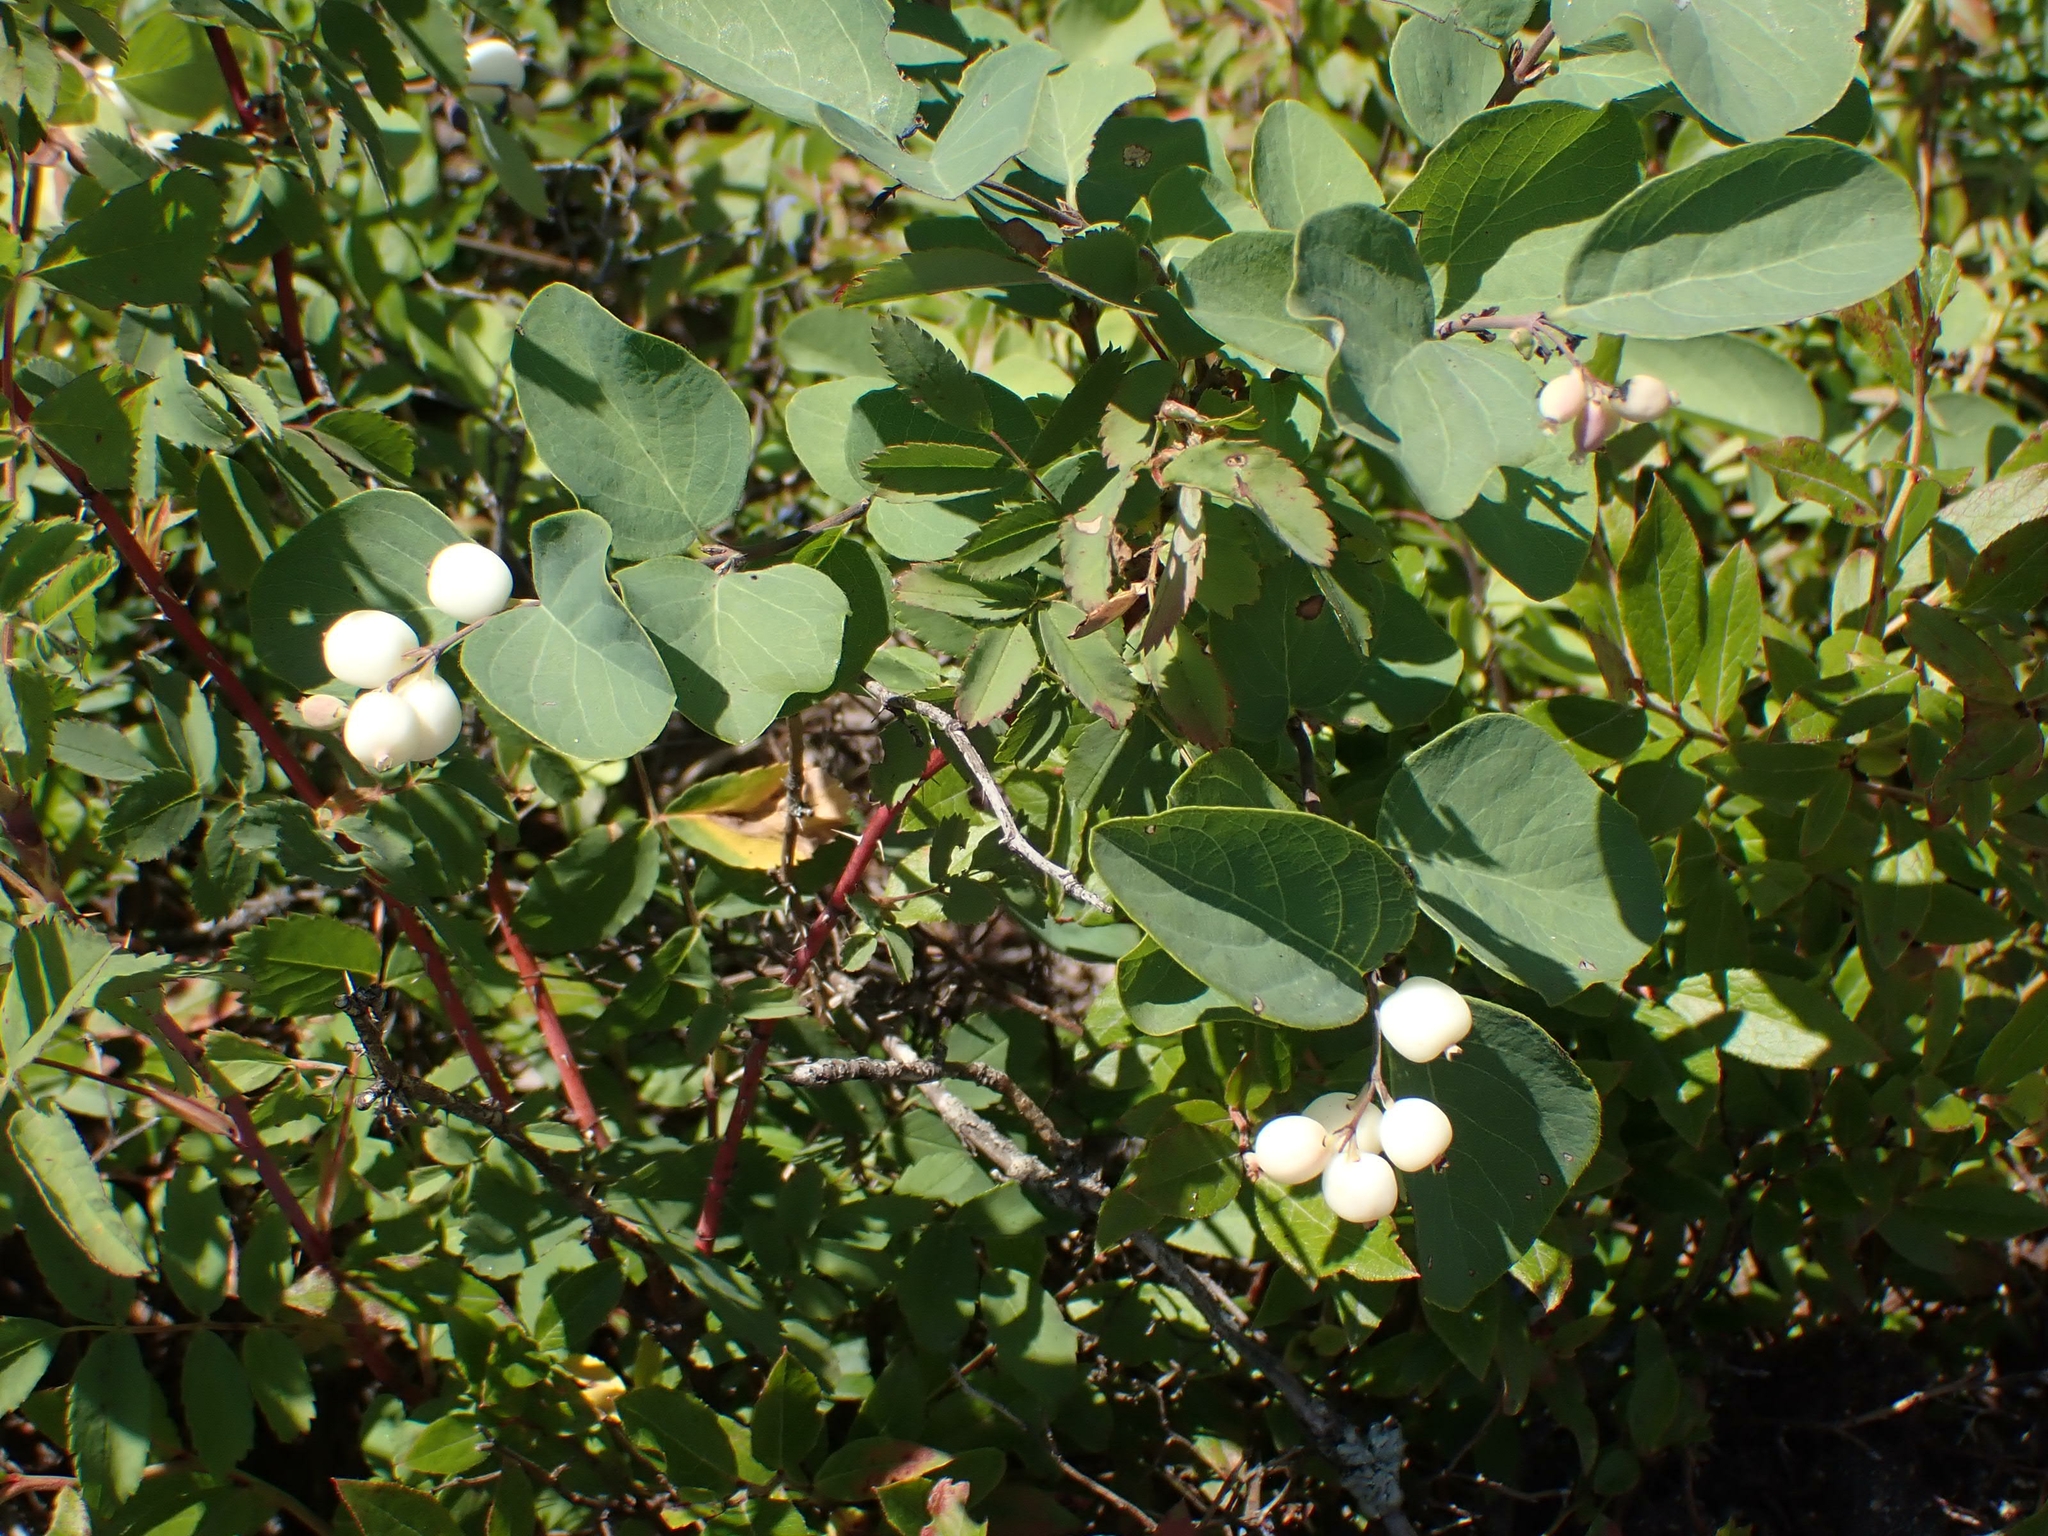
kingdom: Plantae
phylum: Tracheophyta
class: Magnoliopsida
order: Dipsacales
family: Caprifoliaceae
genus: Symphoricarpos
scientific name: Symphoricarpos occidentalis
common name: Wolfberry
